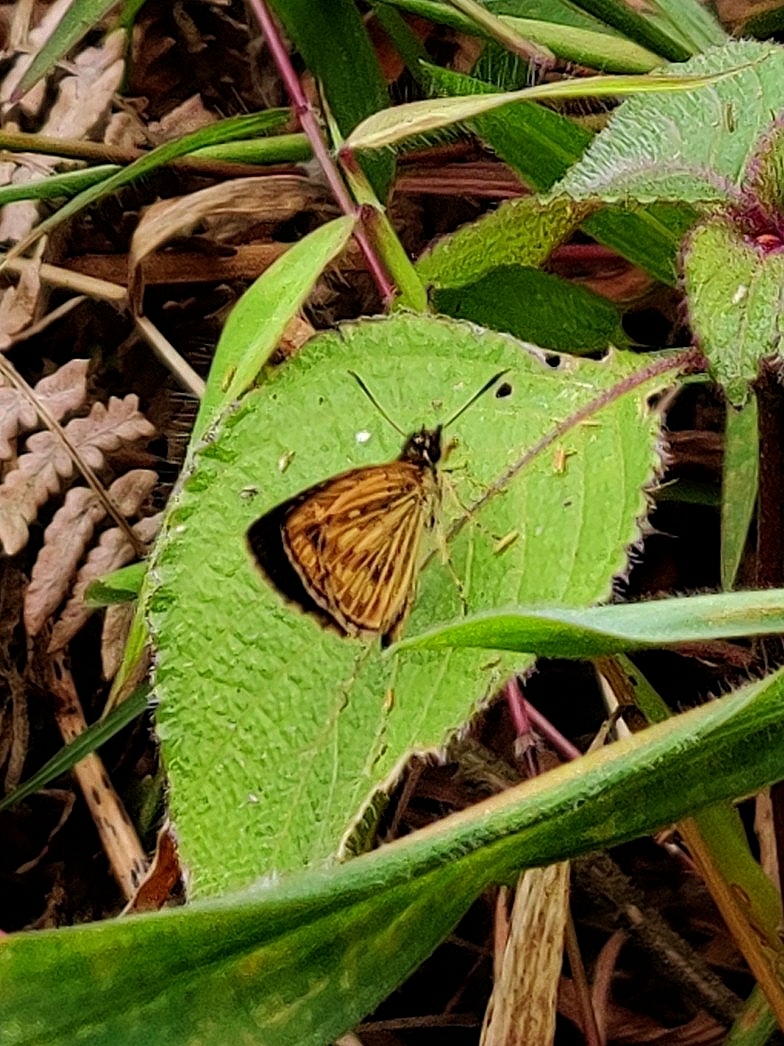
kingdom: Animalia
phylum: Arthropoda
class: Insecta
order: Lepidoptera
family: Hesperiidae
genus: Baracus
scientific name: Baracus vittatus
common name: Hedge-hopper
